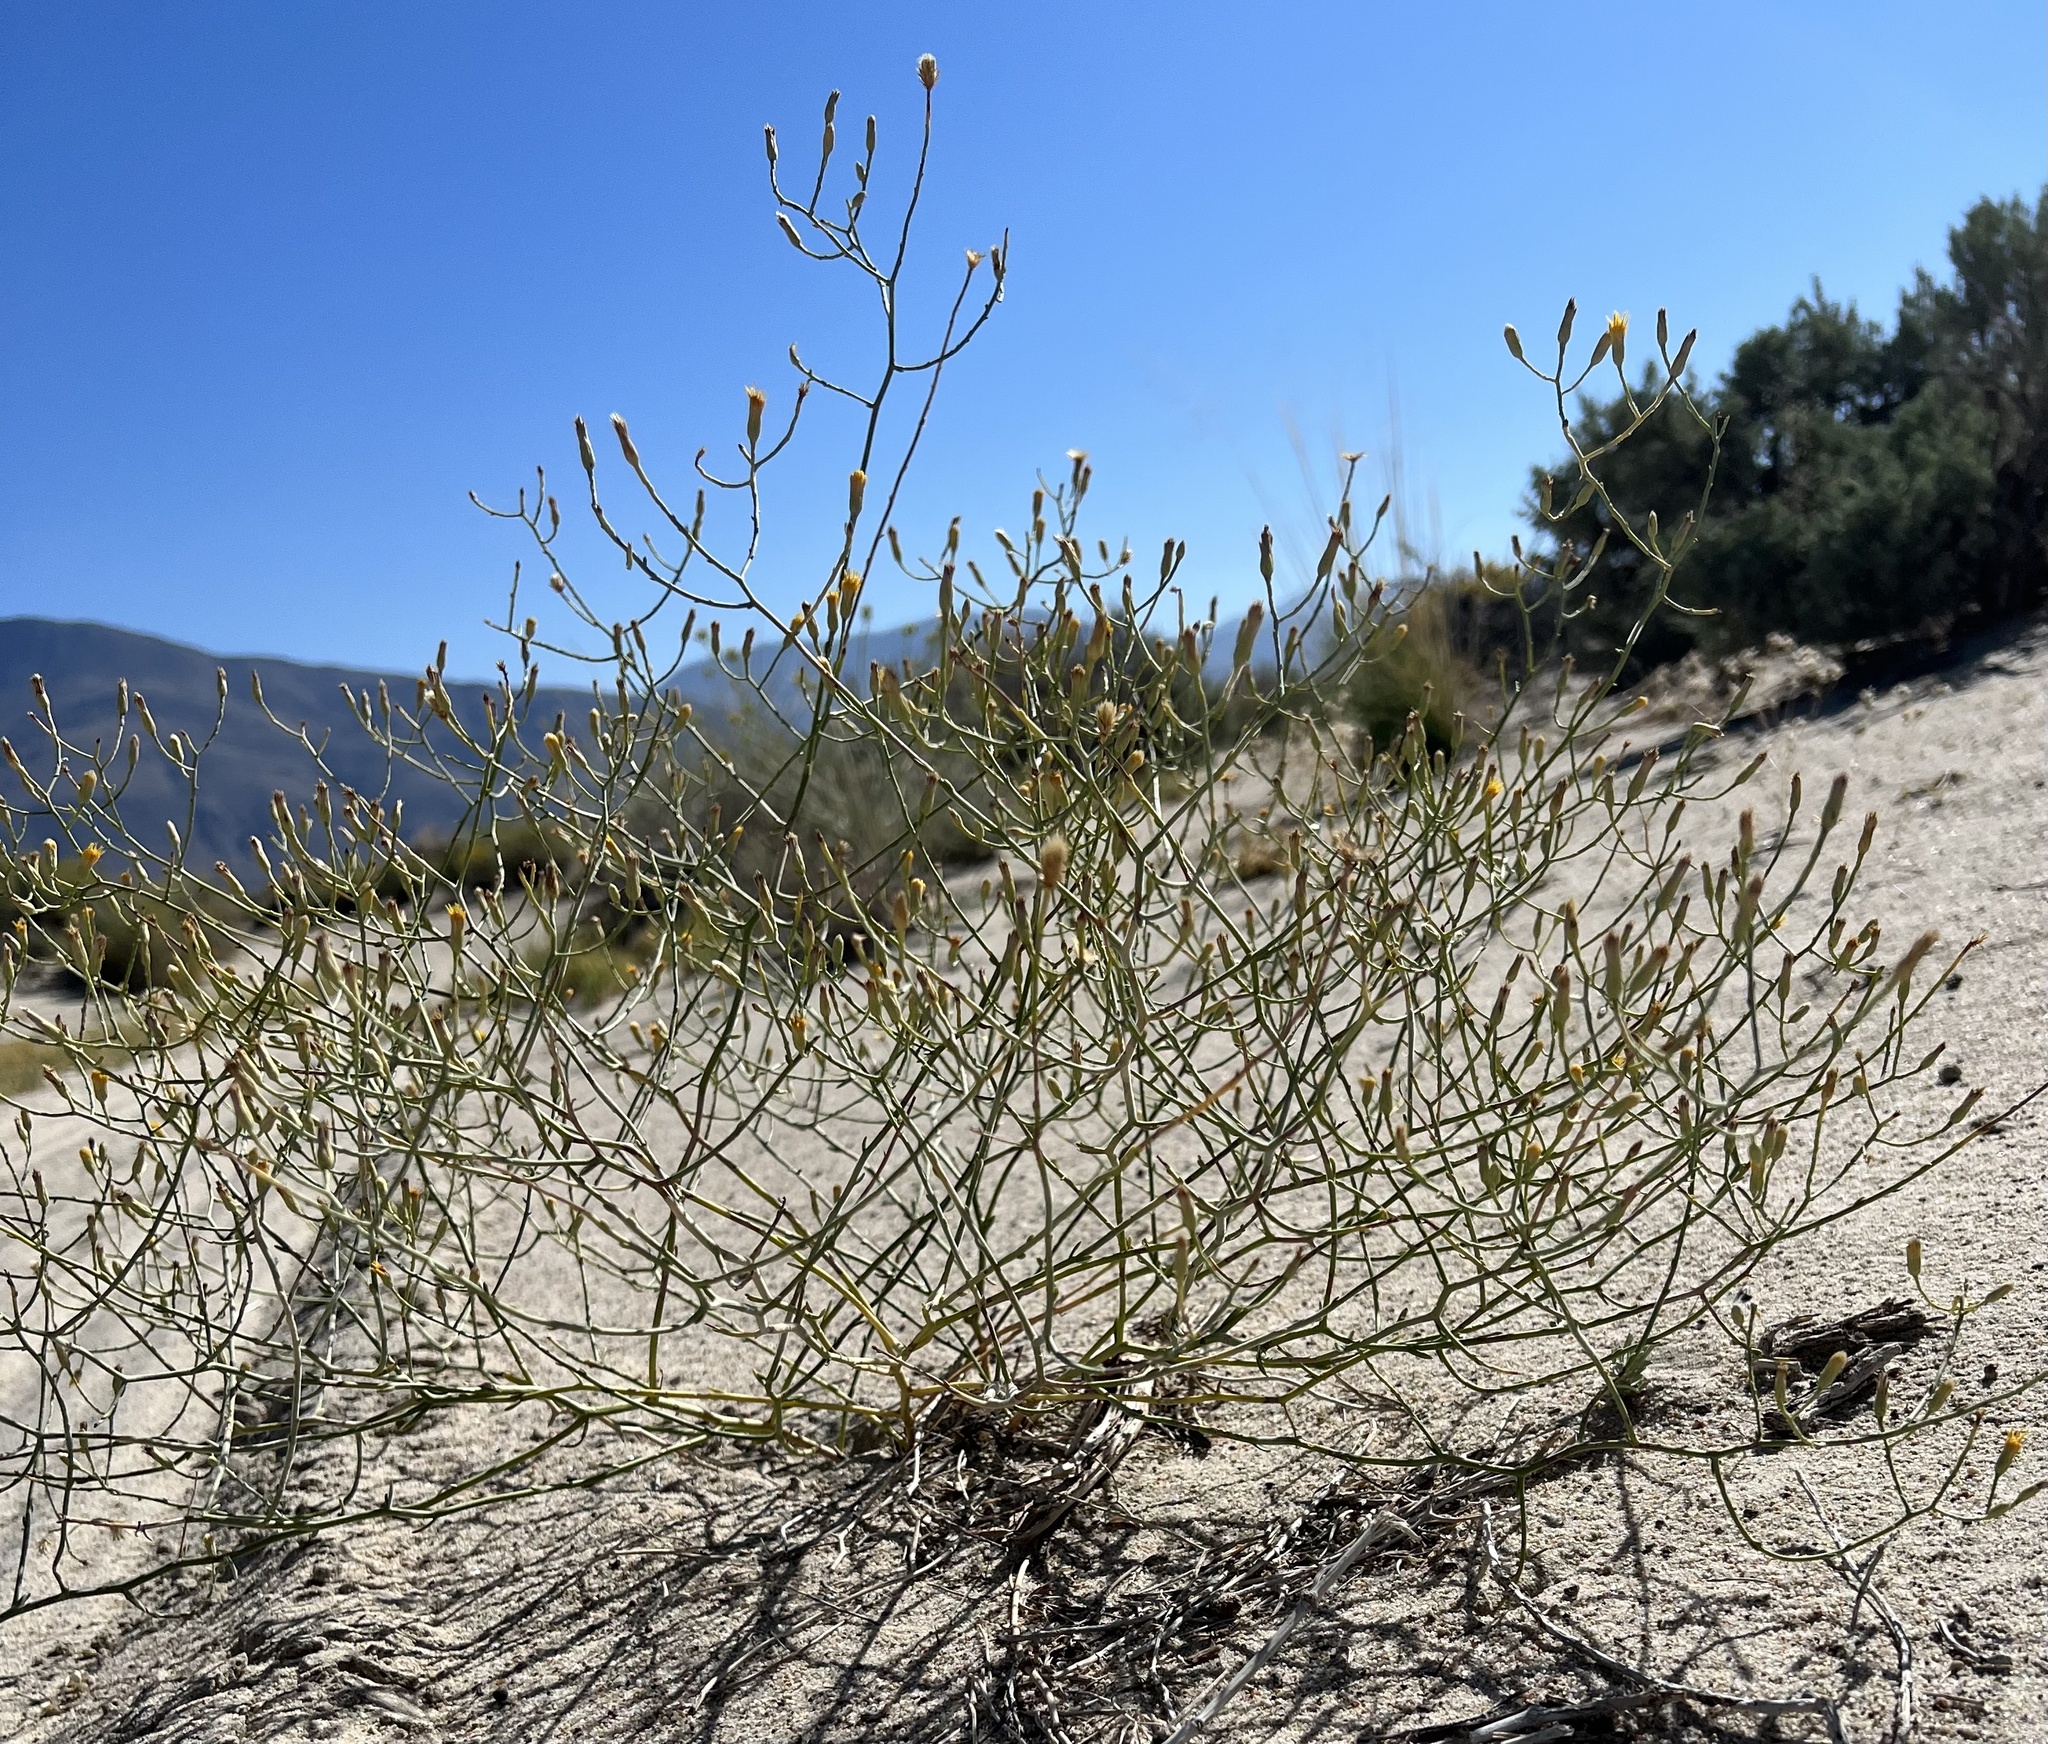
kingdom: Plantae
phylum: Tracheophyta
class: Magnoliopsida
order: Asterales
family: Asteraceae
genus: Leucosyris
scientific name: Leucosyris carnosa
